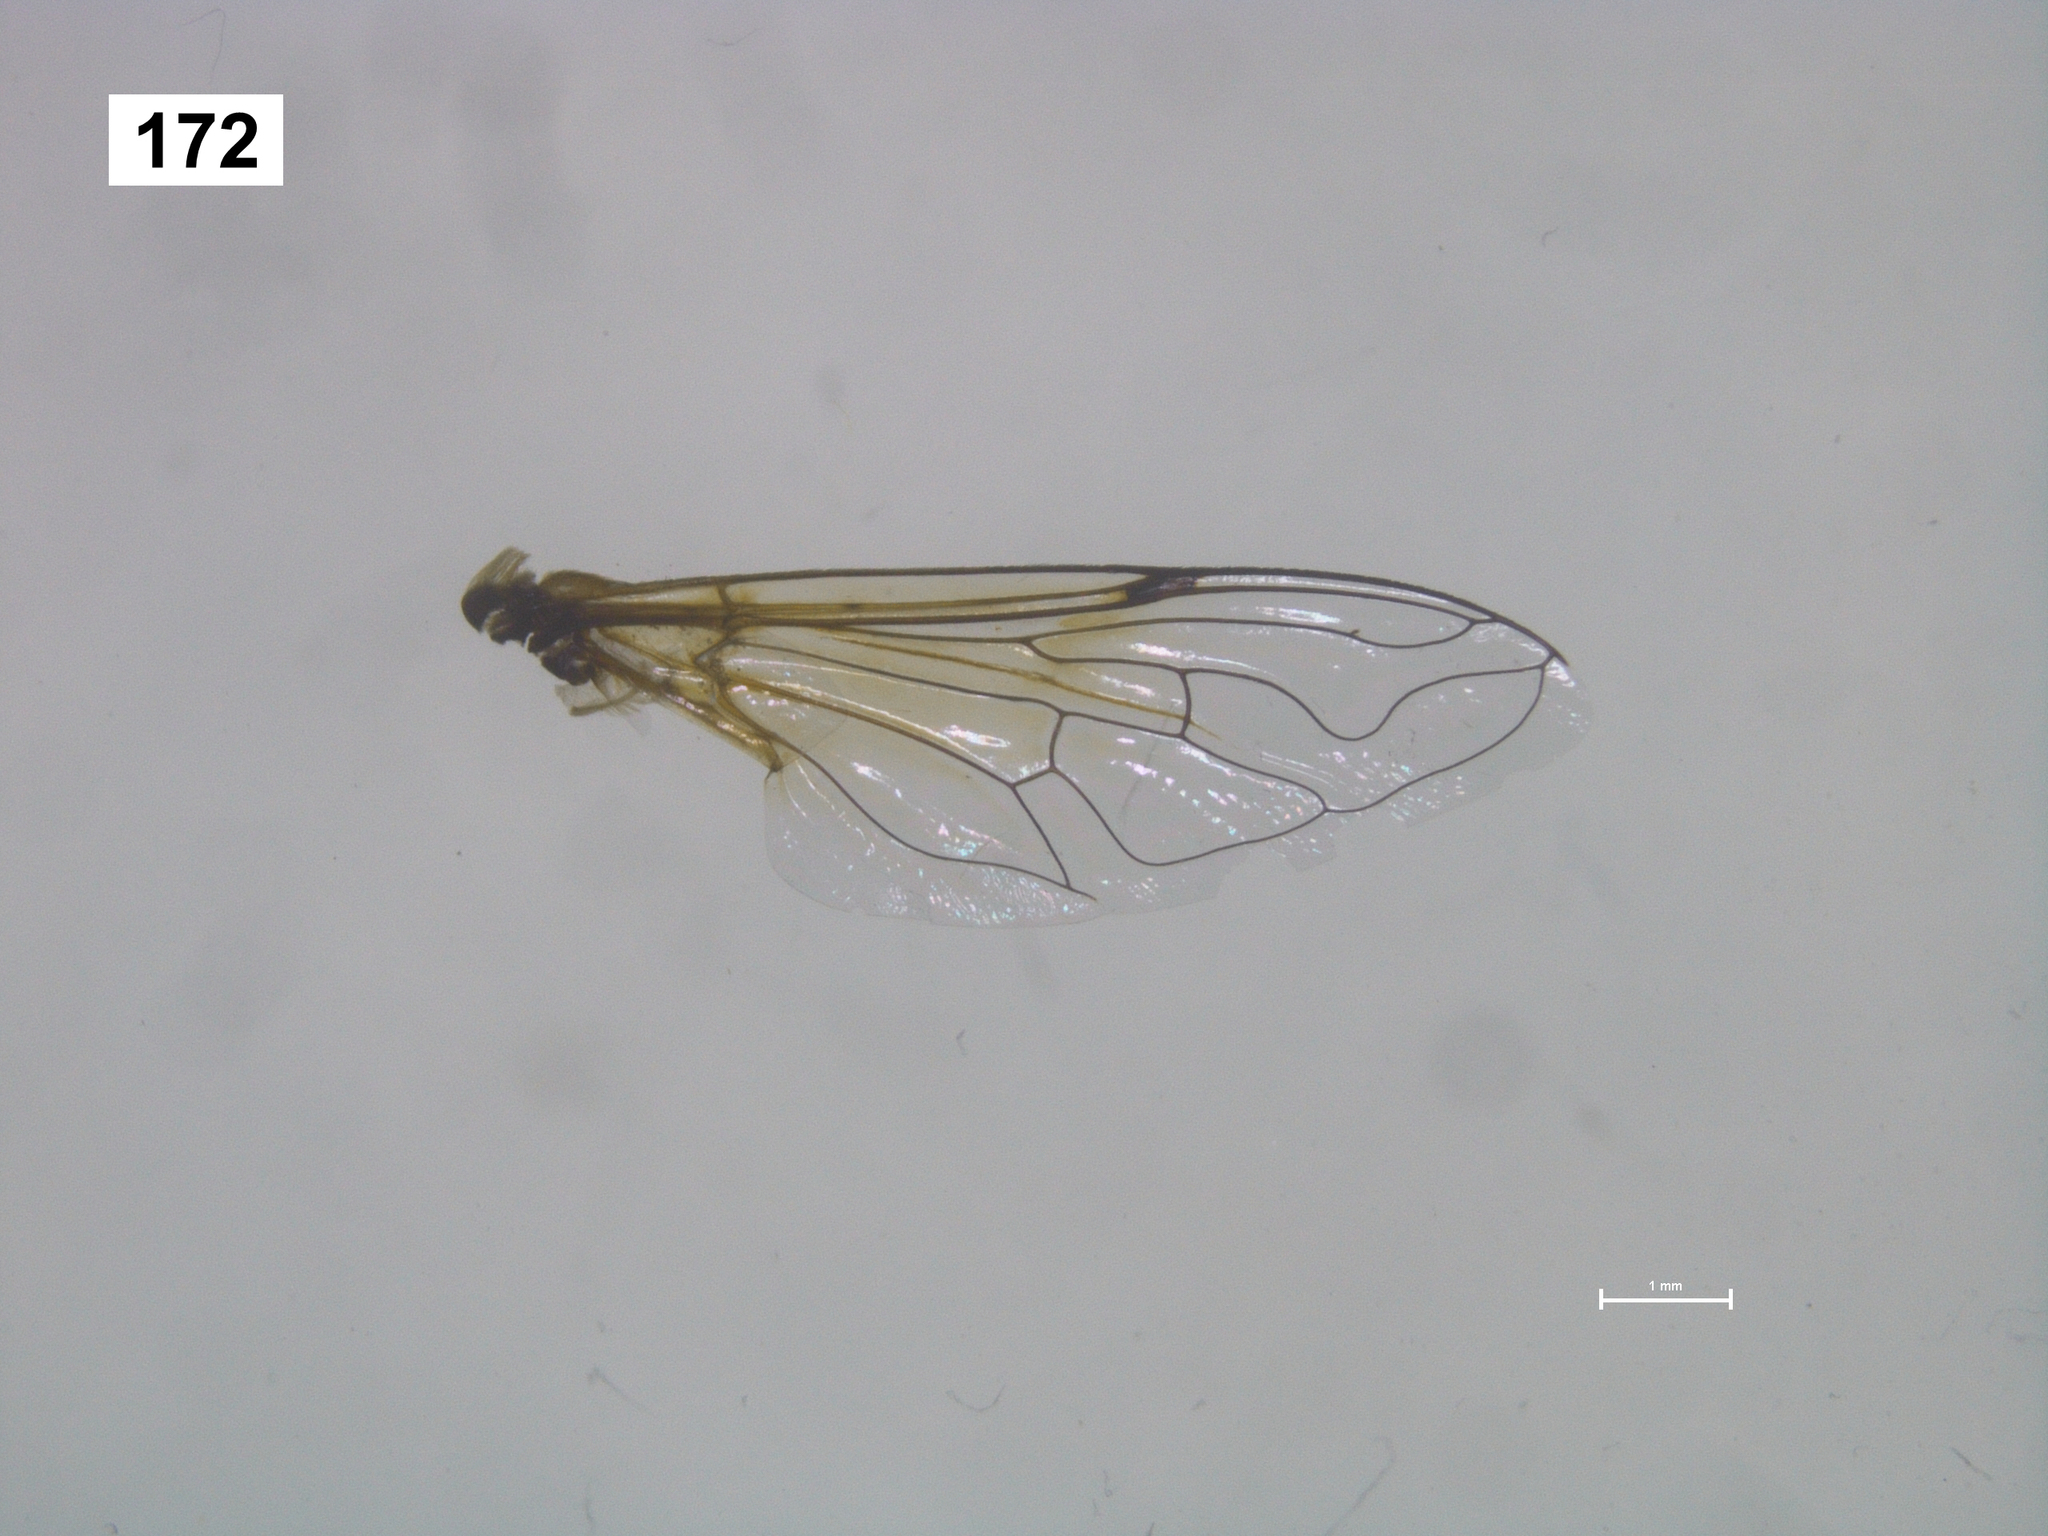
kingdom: Animalia
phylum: Arthropoda
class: Insecta
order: Diptera
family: Syrphidae
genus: Eristalis
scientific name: Eristalis arbustorum
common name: Hover fly
